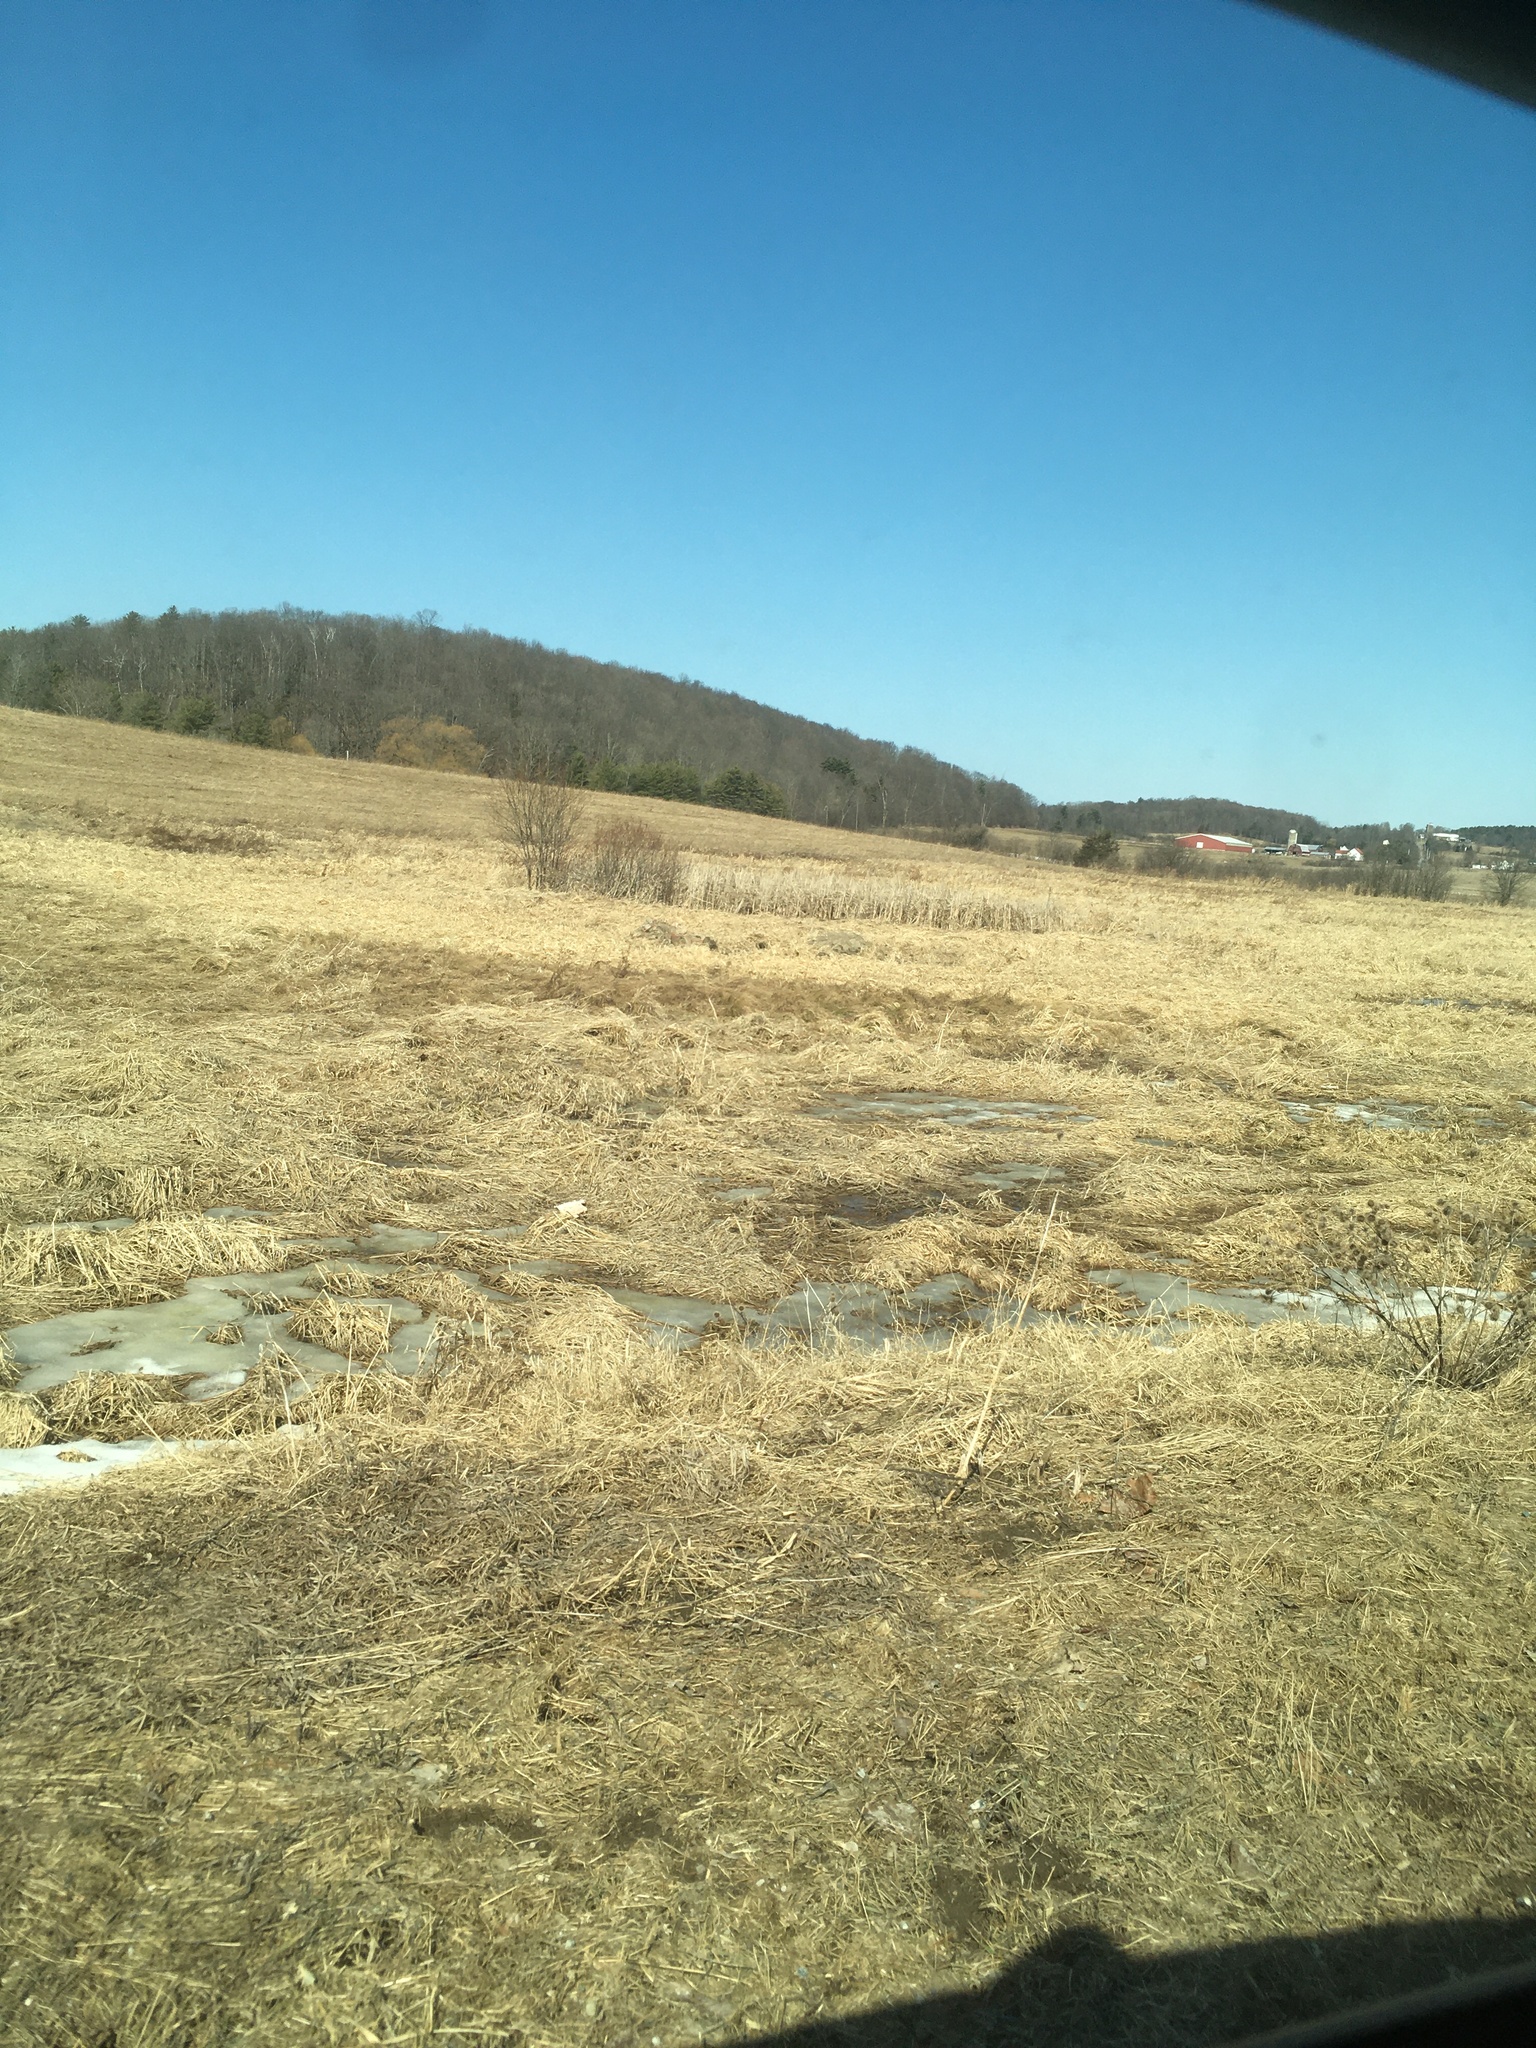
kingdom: Plantae
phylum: Tracheophyta
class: Liliopsida
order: Poales
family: Typhaceae
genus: Typha
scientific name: Typha
